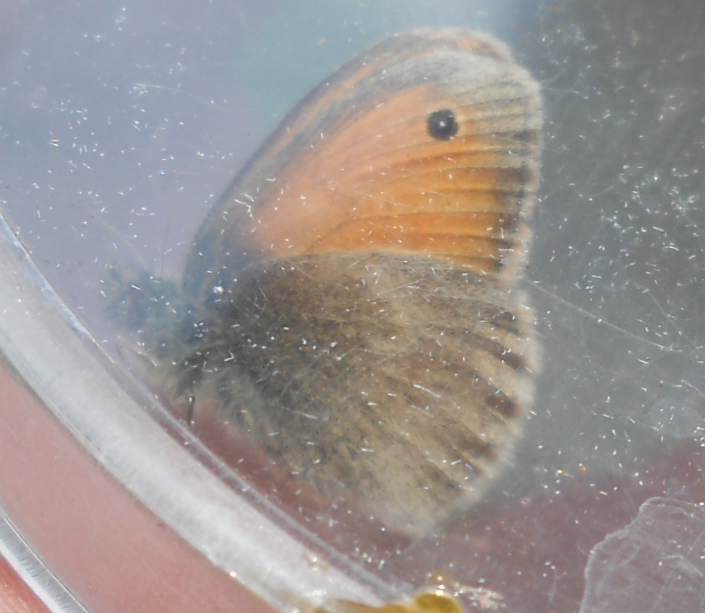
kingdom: Animalia
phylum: Arthropoda
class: Insecta
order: Lepidoptera
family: Nymphalidae
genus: Coenonympha
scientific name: Coenonympha pamphilus
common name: Small heath
